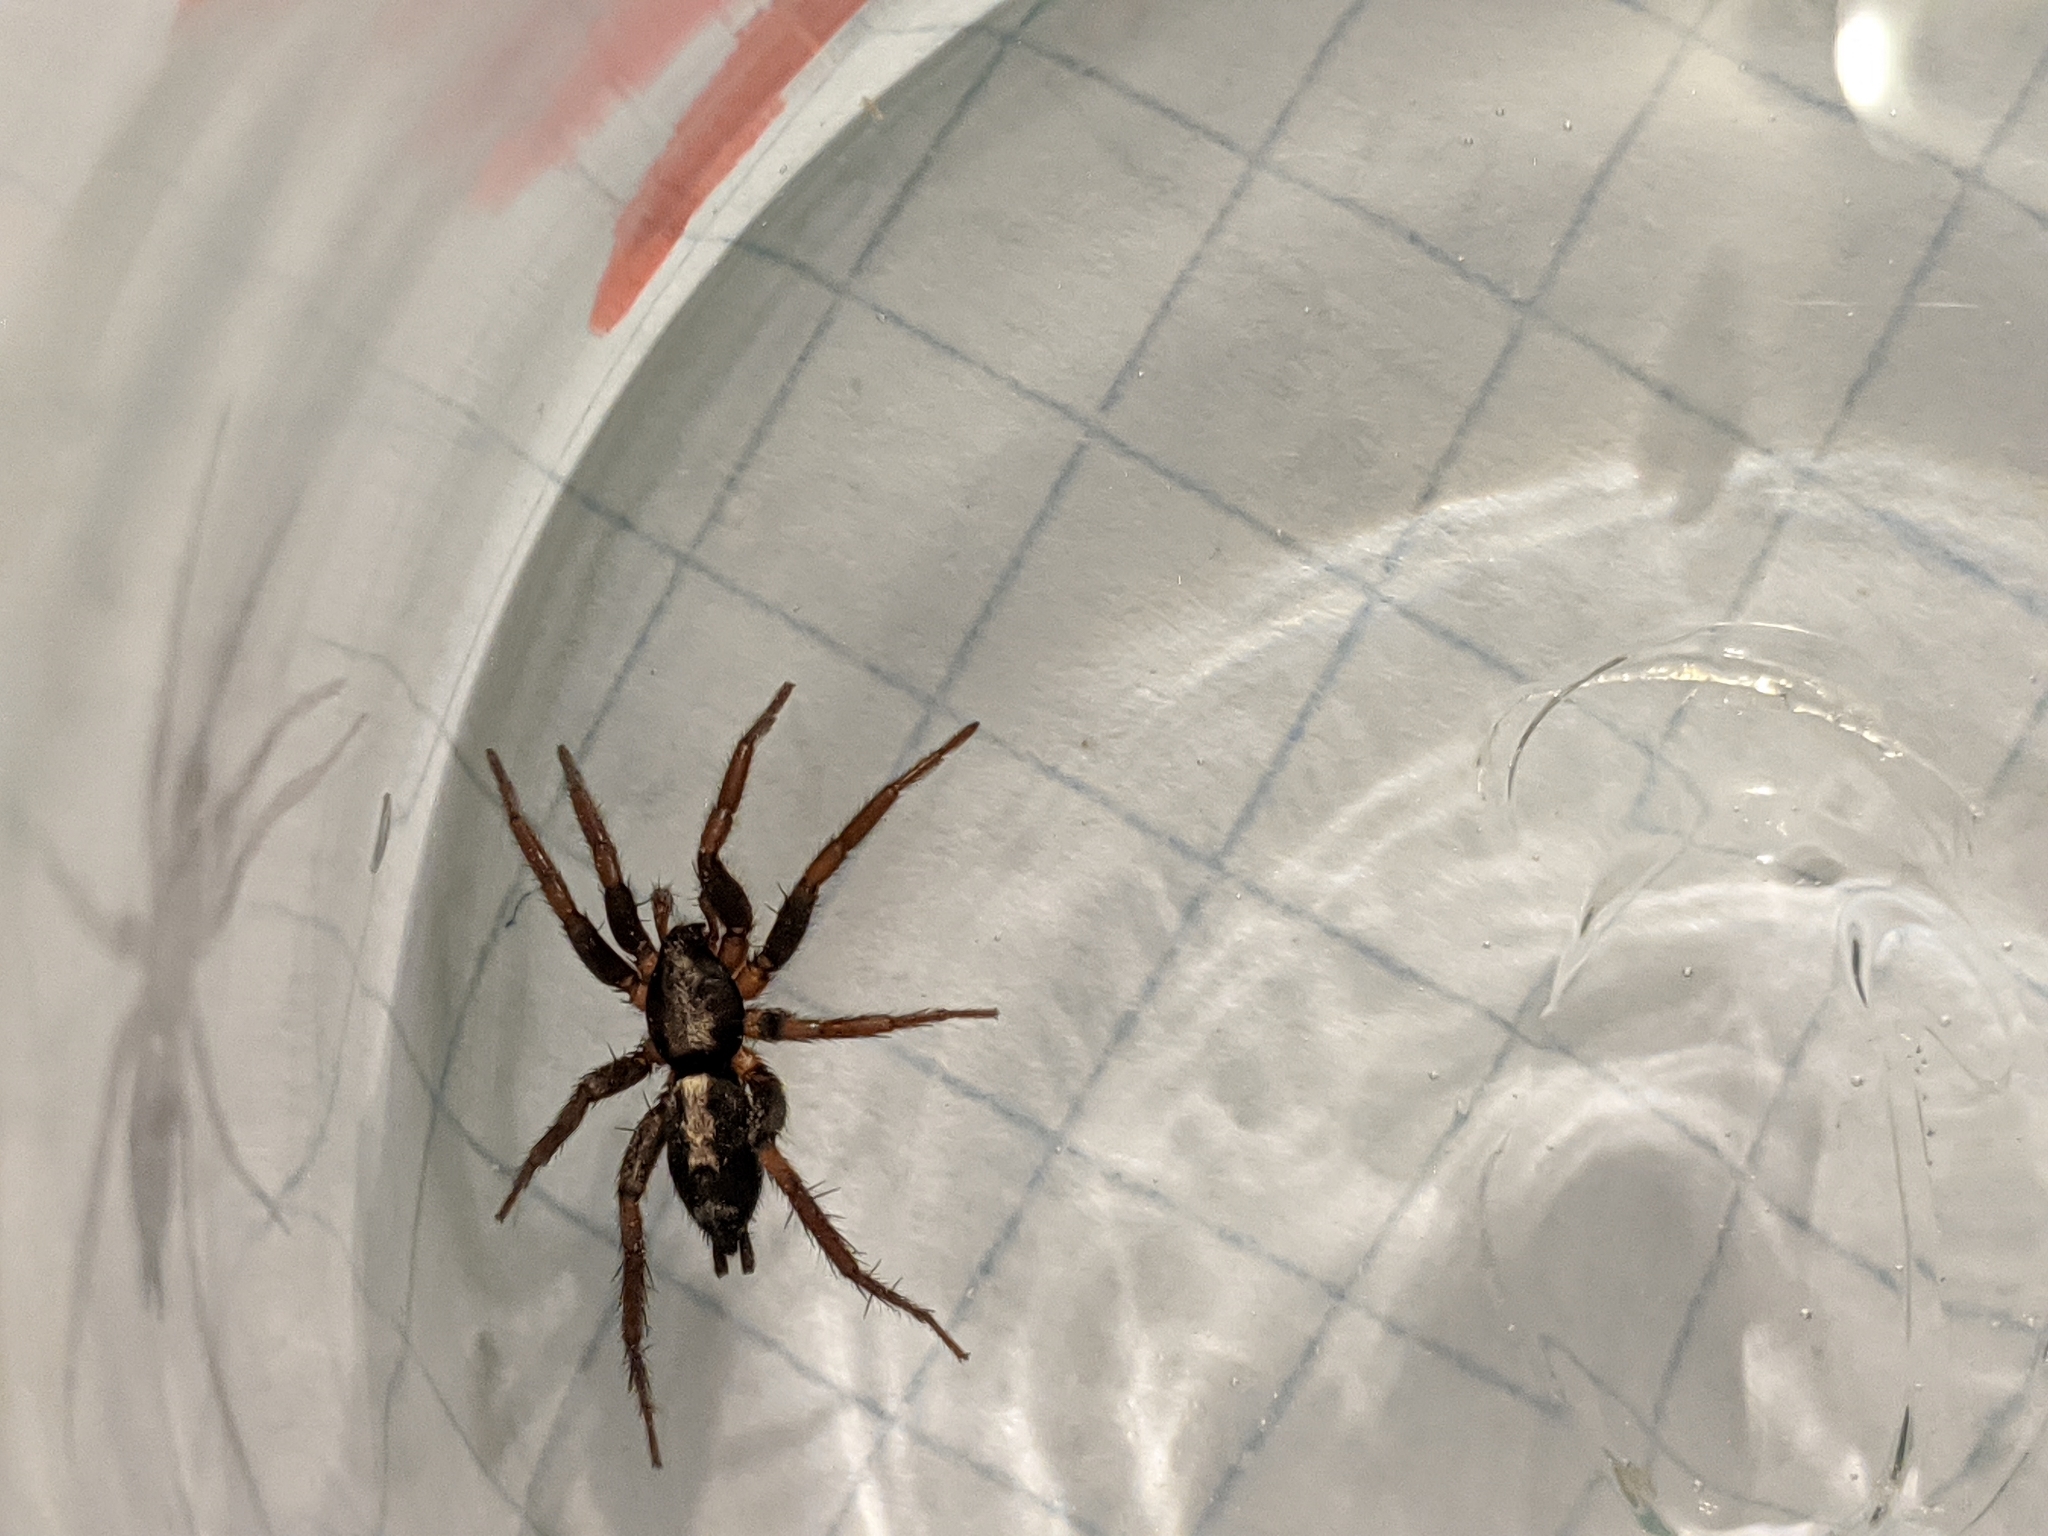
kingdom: Animalia
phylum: Arthropoda
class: Arachnida
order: Araneae
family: Gnaphosidae
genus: Herpyllus
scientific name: Herpyllus ecclesiasticus
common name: Eastern parson spider
